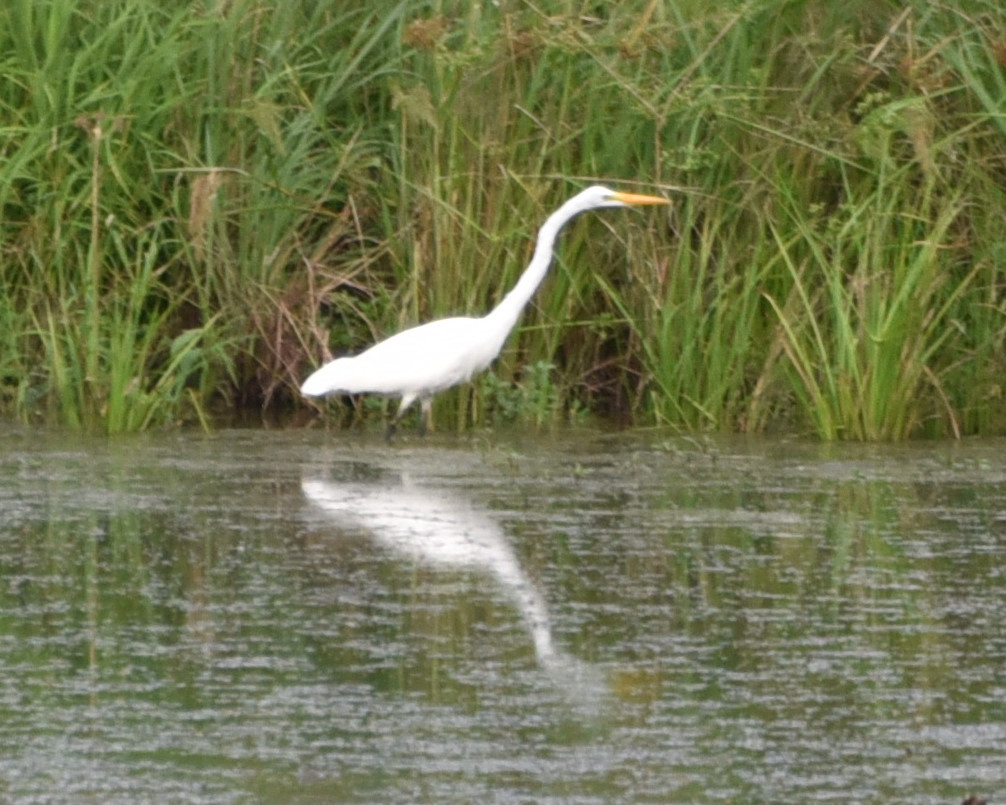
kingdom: Animalia
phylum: Chordata
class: Aves
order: Pelecaniformes
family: Ardeidae
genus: Ardea
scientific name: Ardea alba
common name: Great egret
